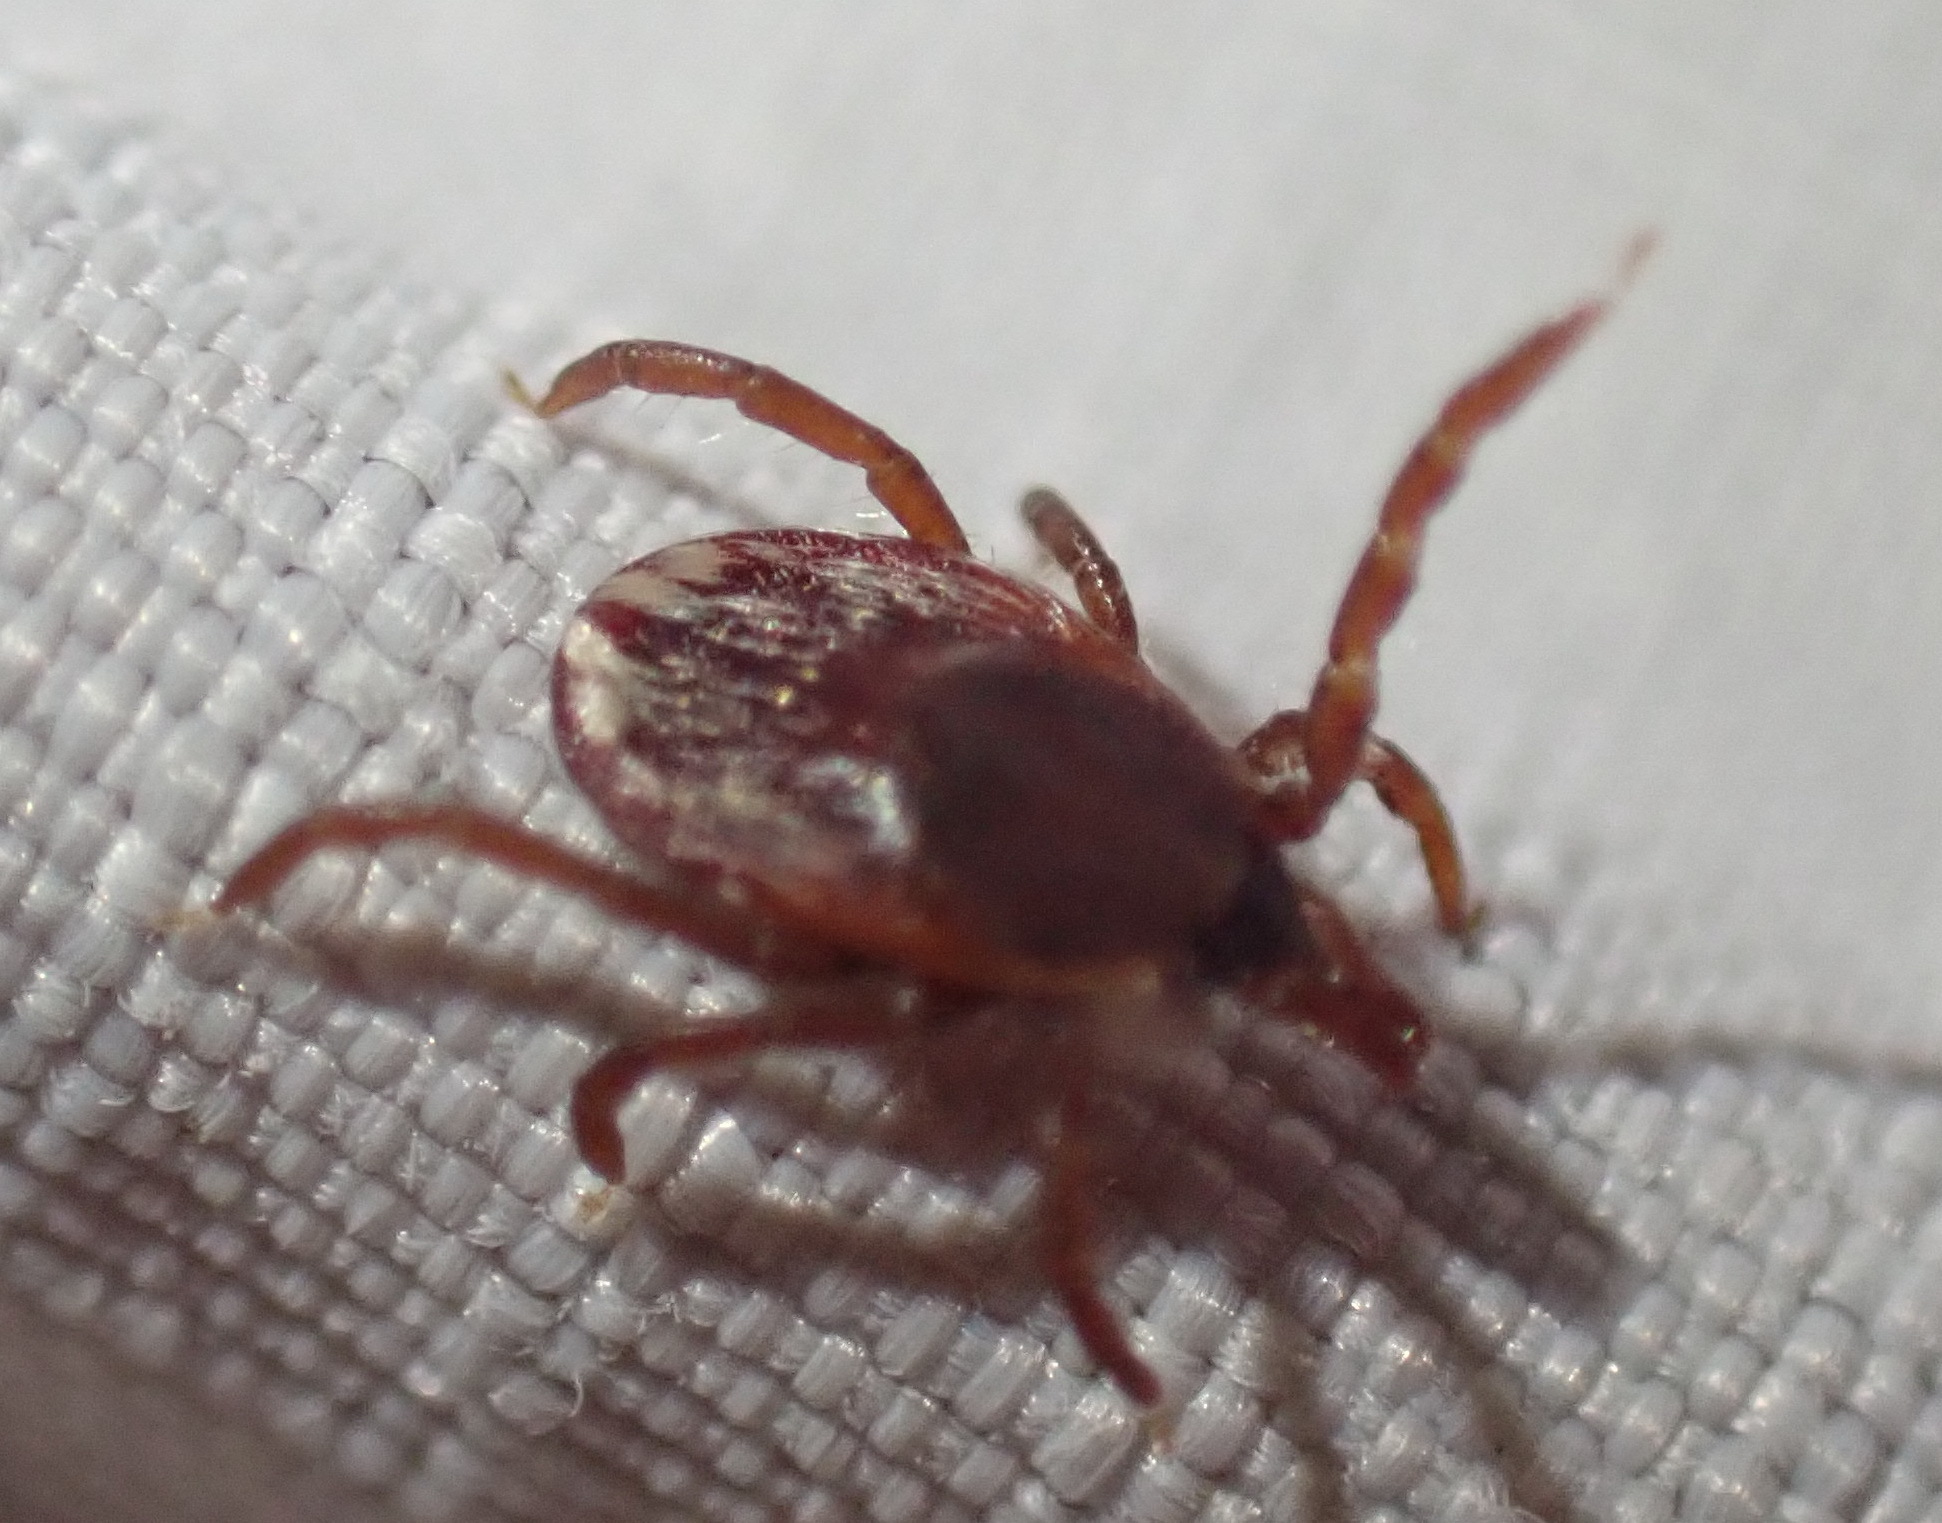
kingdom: Animalia
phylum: Arthropoda
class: Arachnida
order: Ixodida
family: Ixodidae
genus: Ixodes
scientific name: Ixodes pilosus
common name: Bush tick
